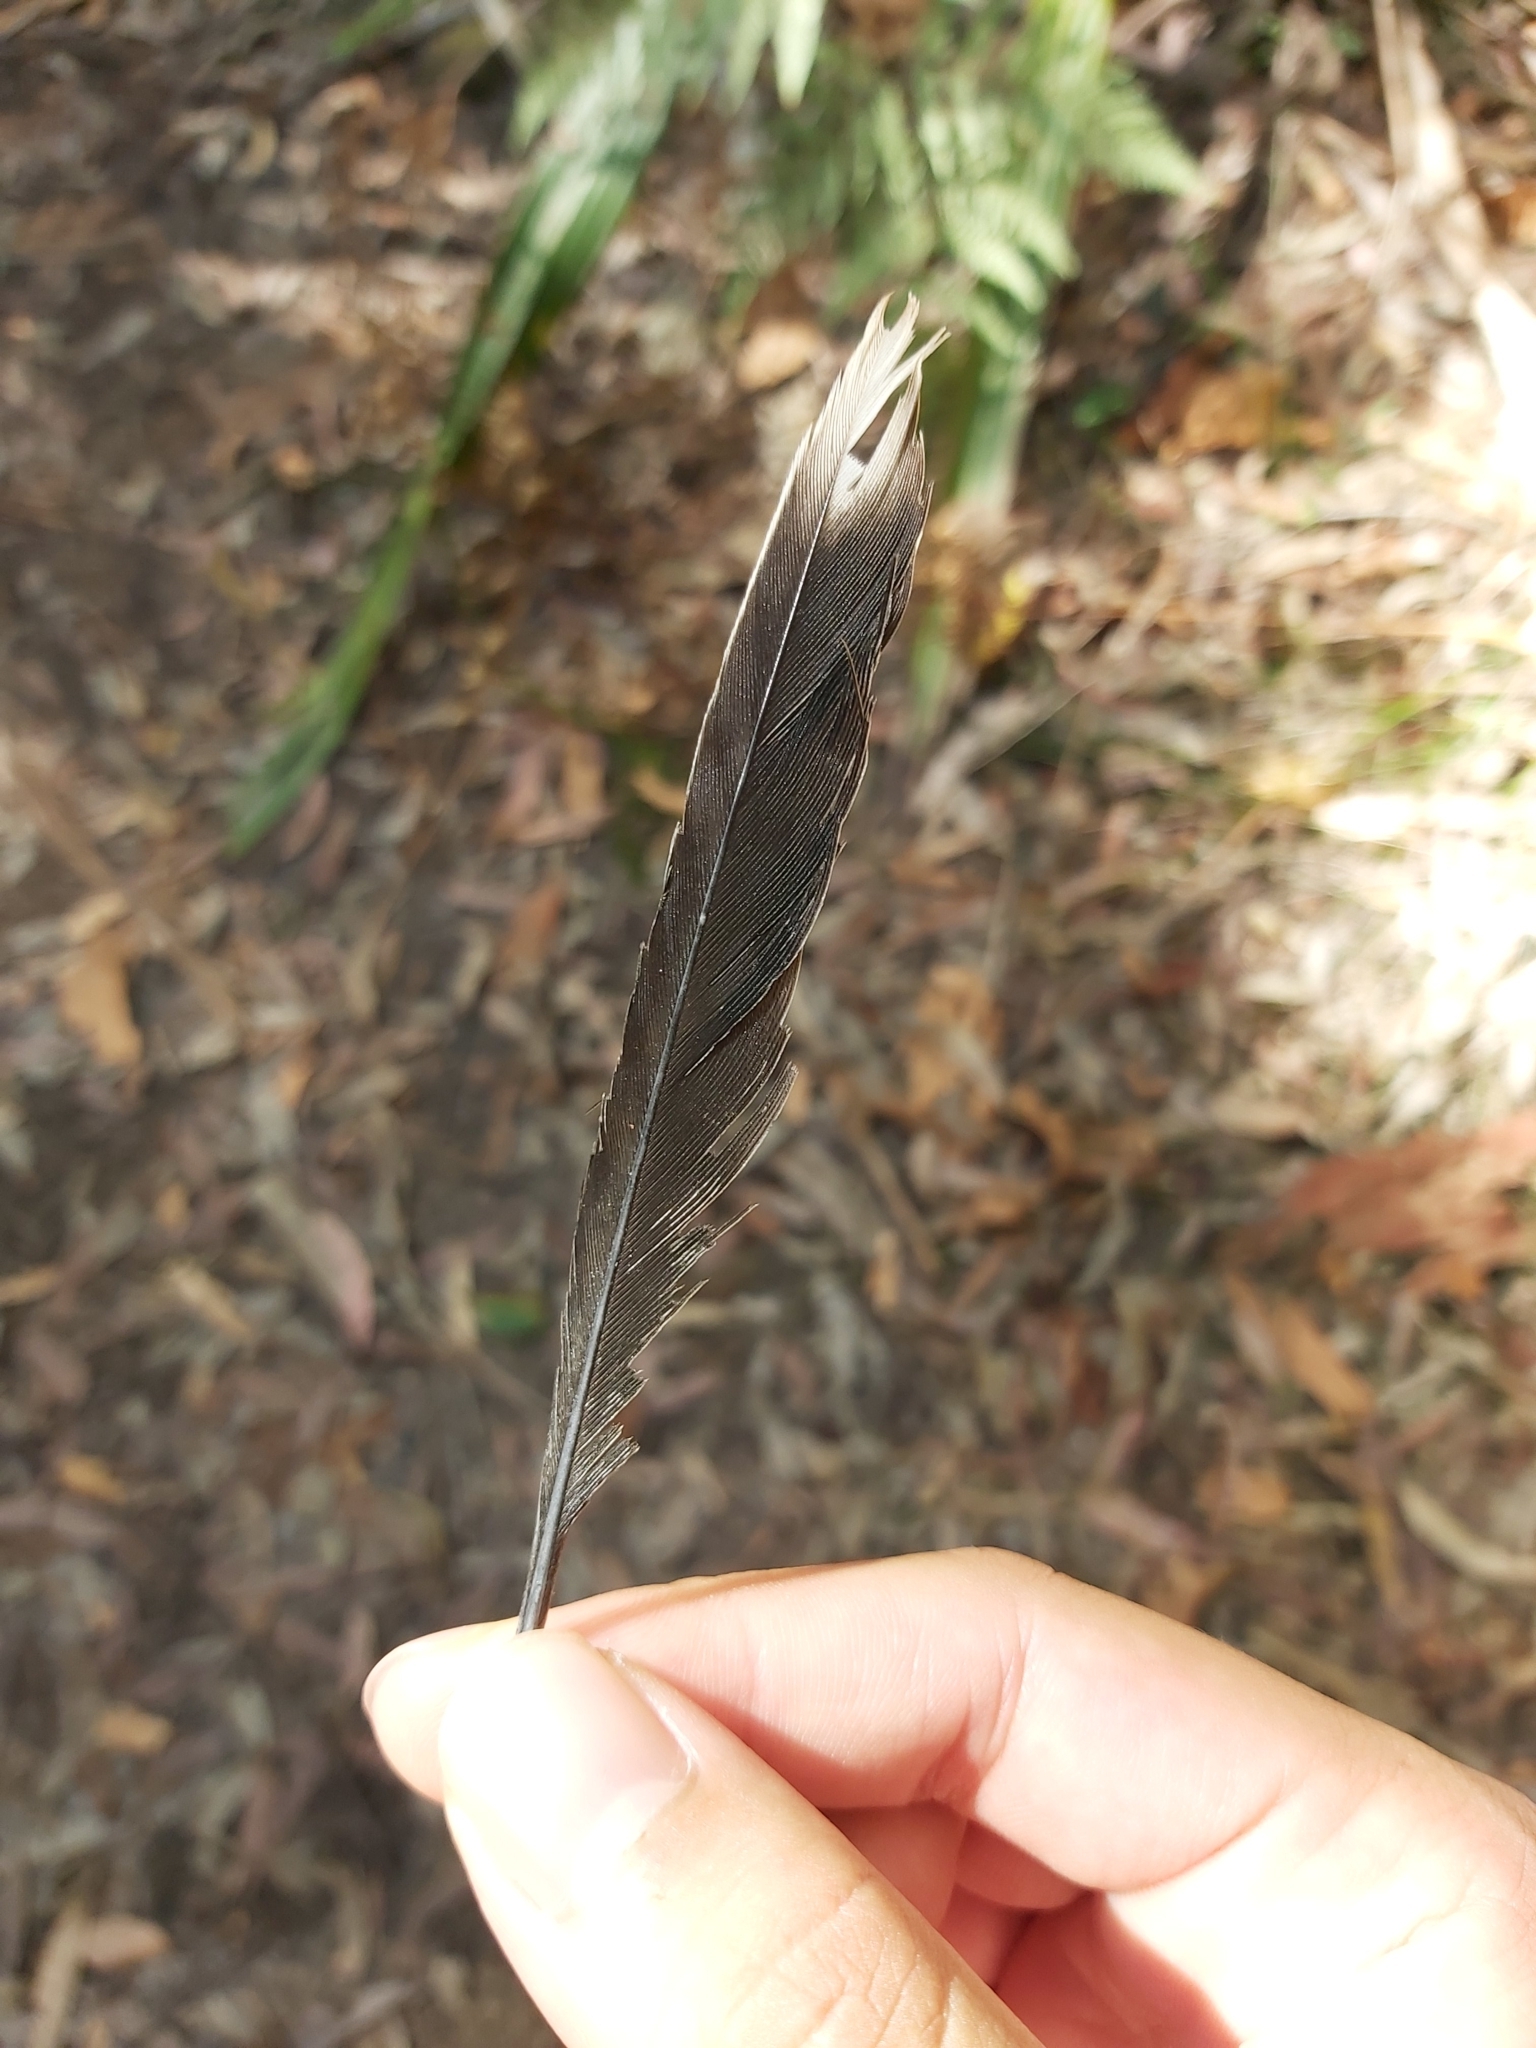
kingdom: Animalia
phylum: Chordata
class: Aves
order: Passeriformes
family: Meliphagidae
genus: Manorina
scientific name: Manorina melanocephala
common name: Noisy miner
